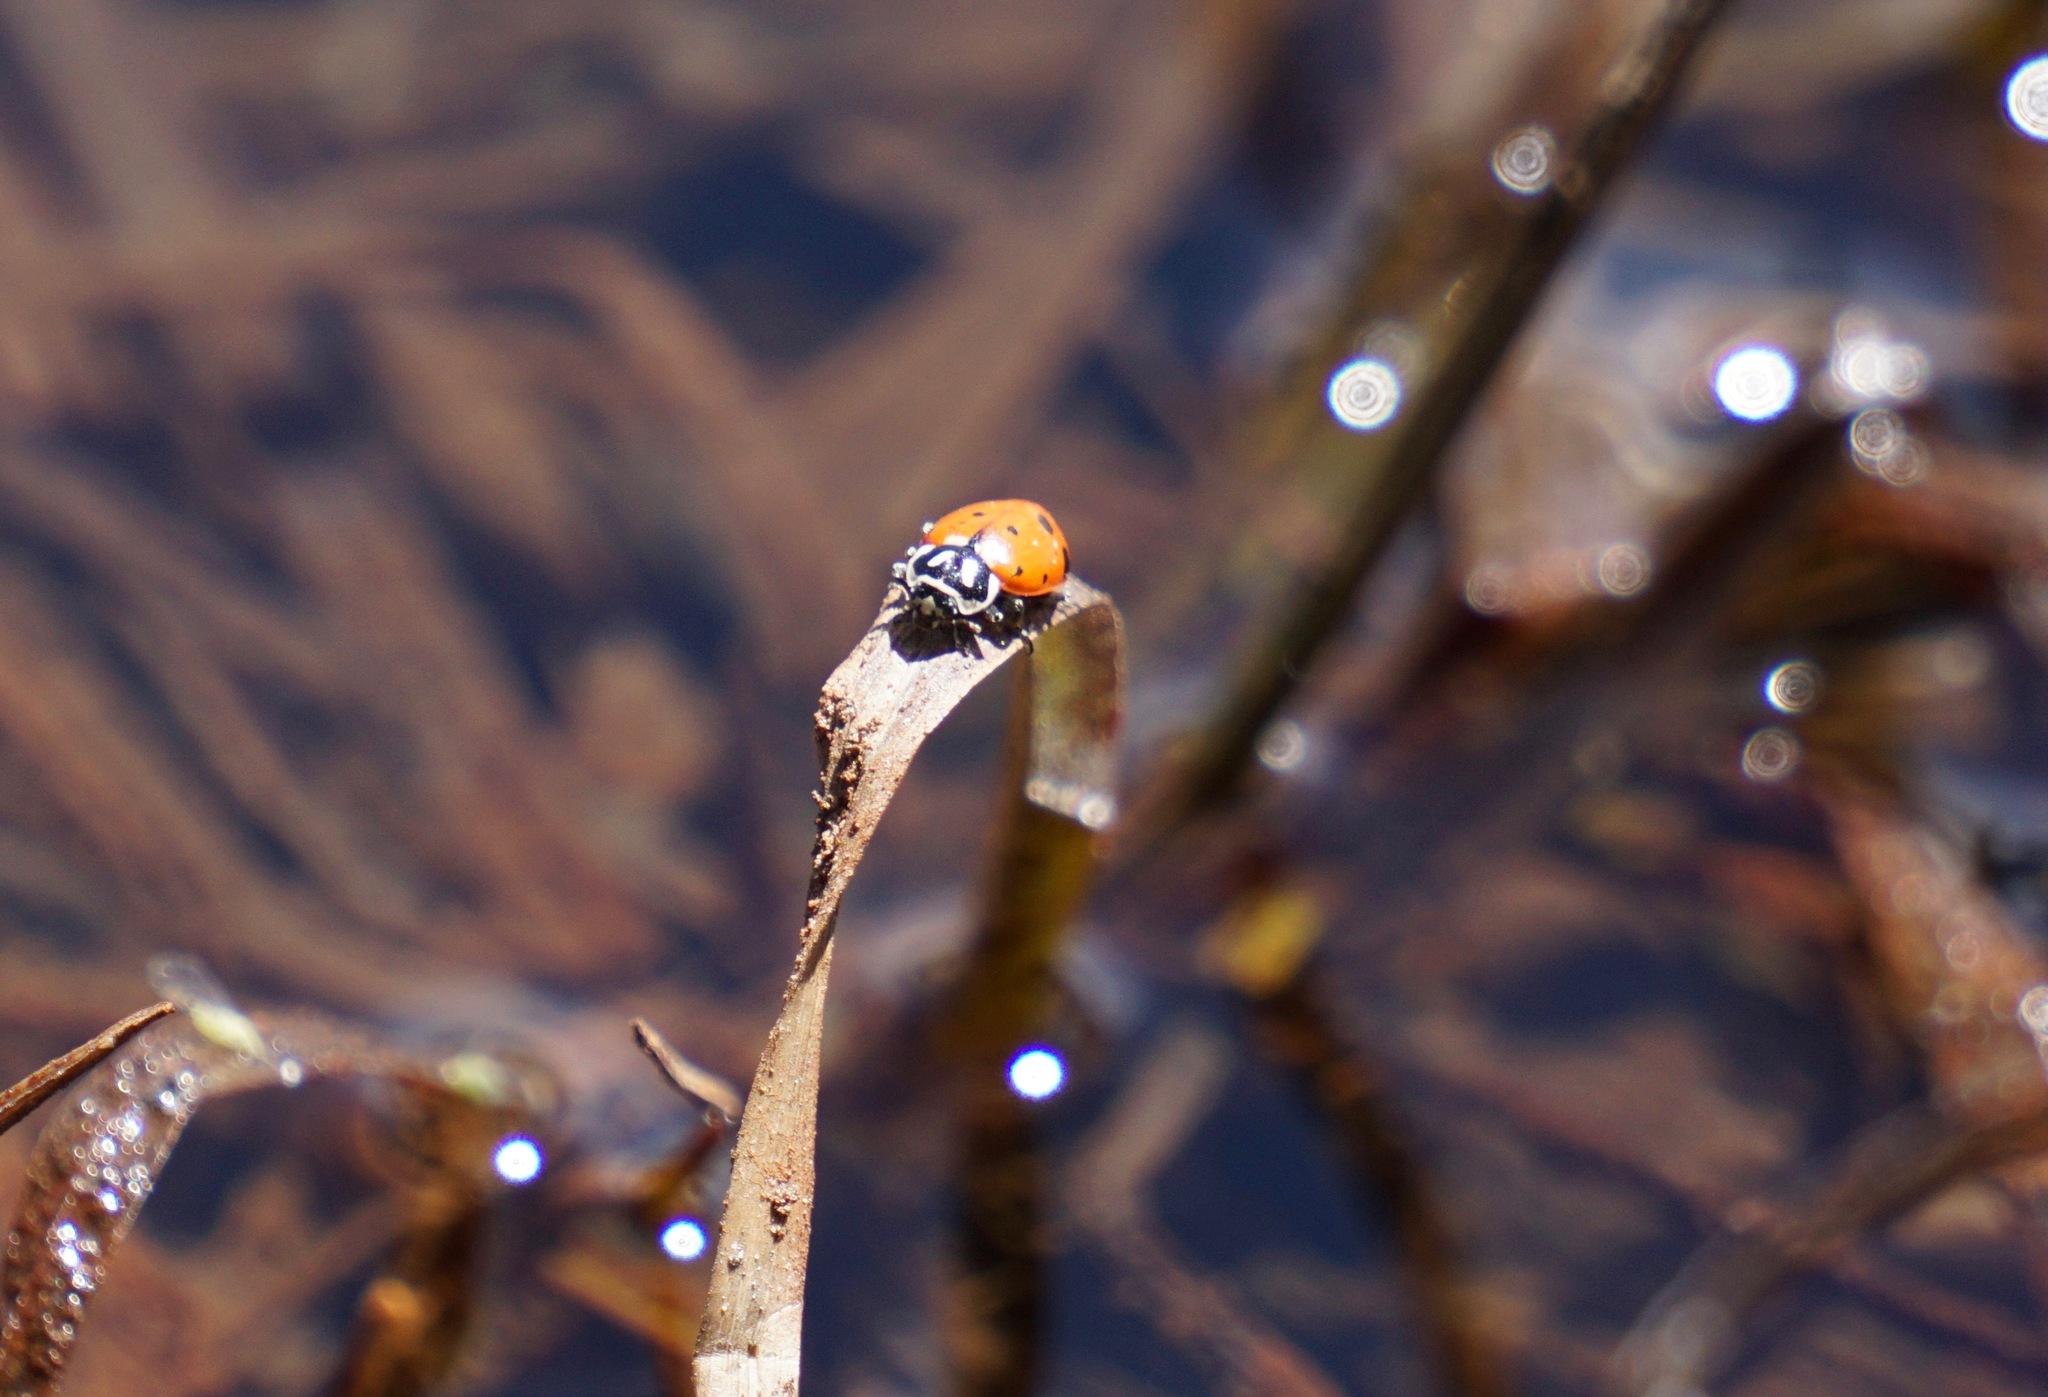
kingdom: Animalia
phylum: Arthropoda
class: Insecta
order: Coleoptera
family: Coccinellidae
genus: Hippodamia
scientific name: Hippodamia convergens
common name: Convergent lady beetle
